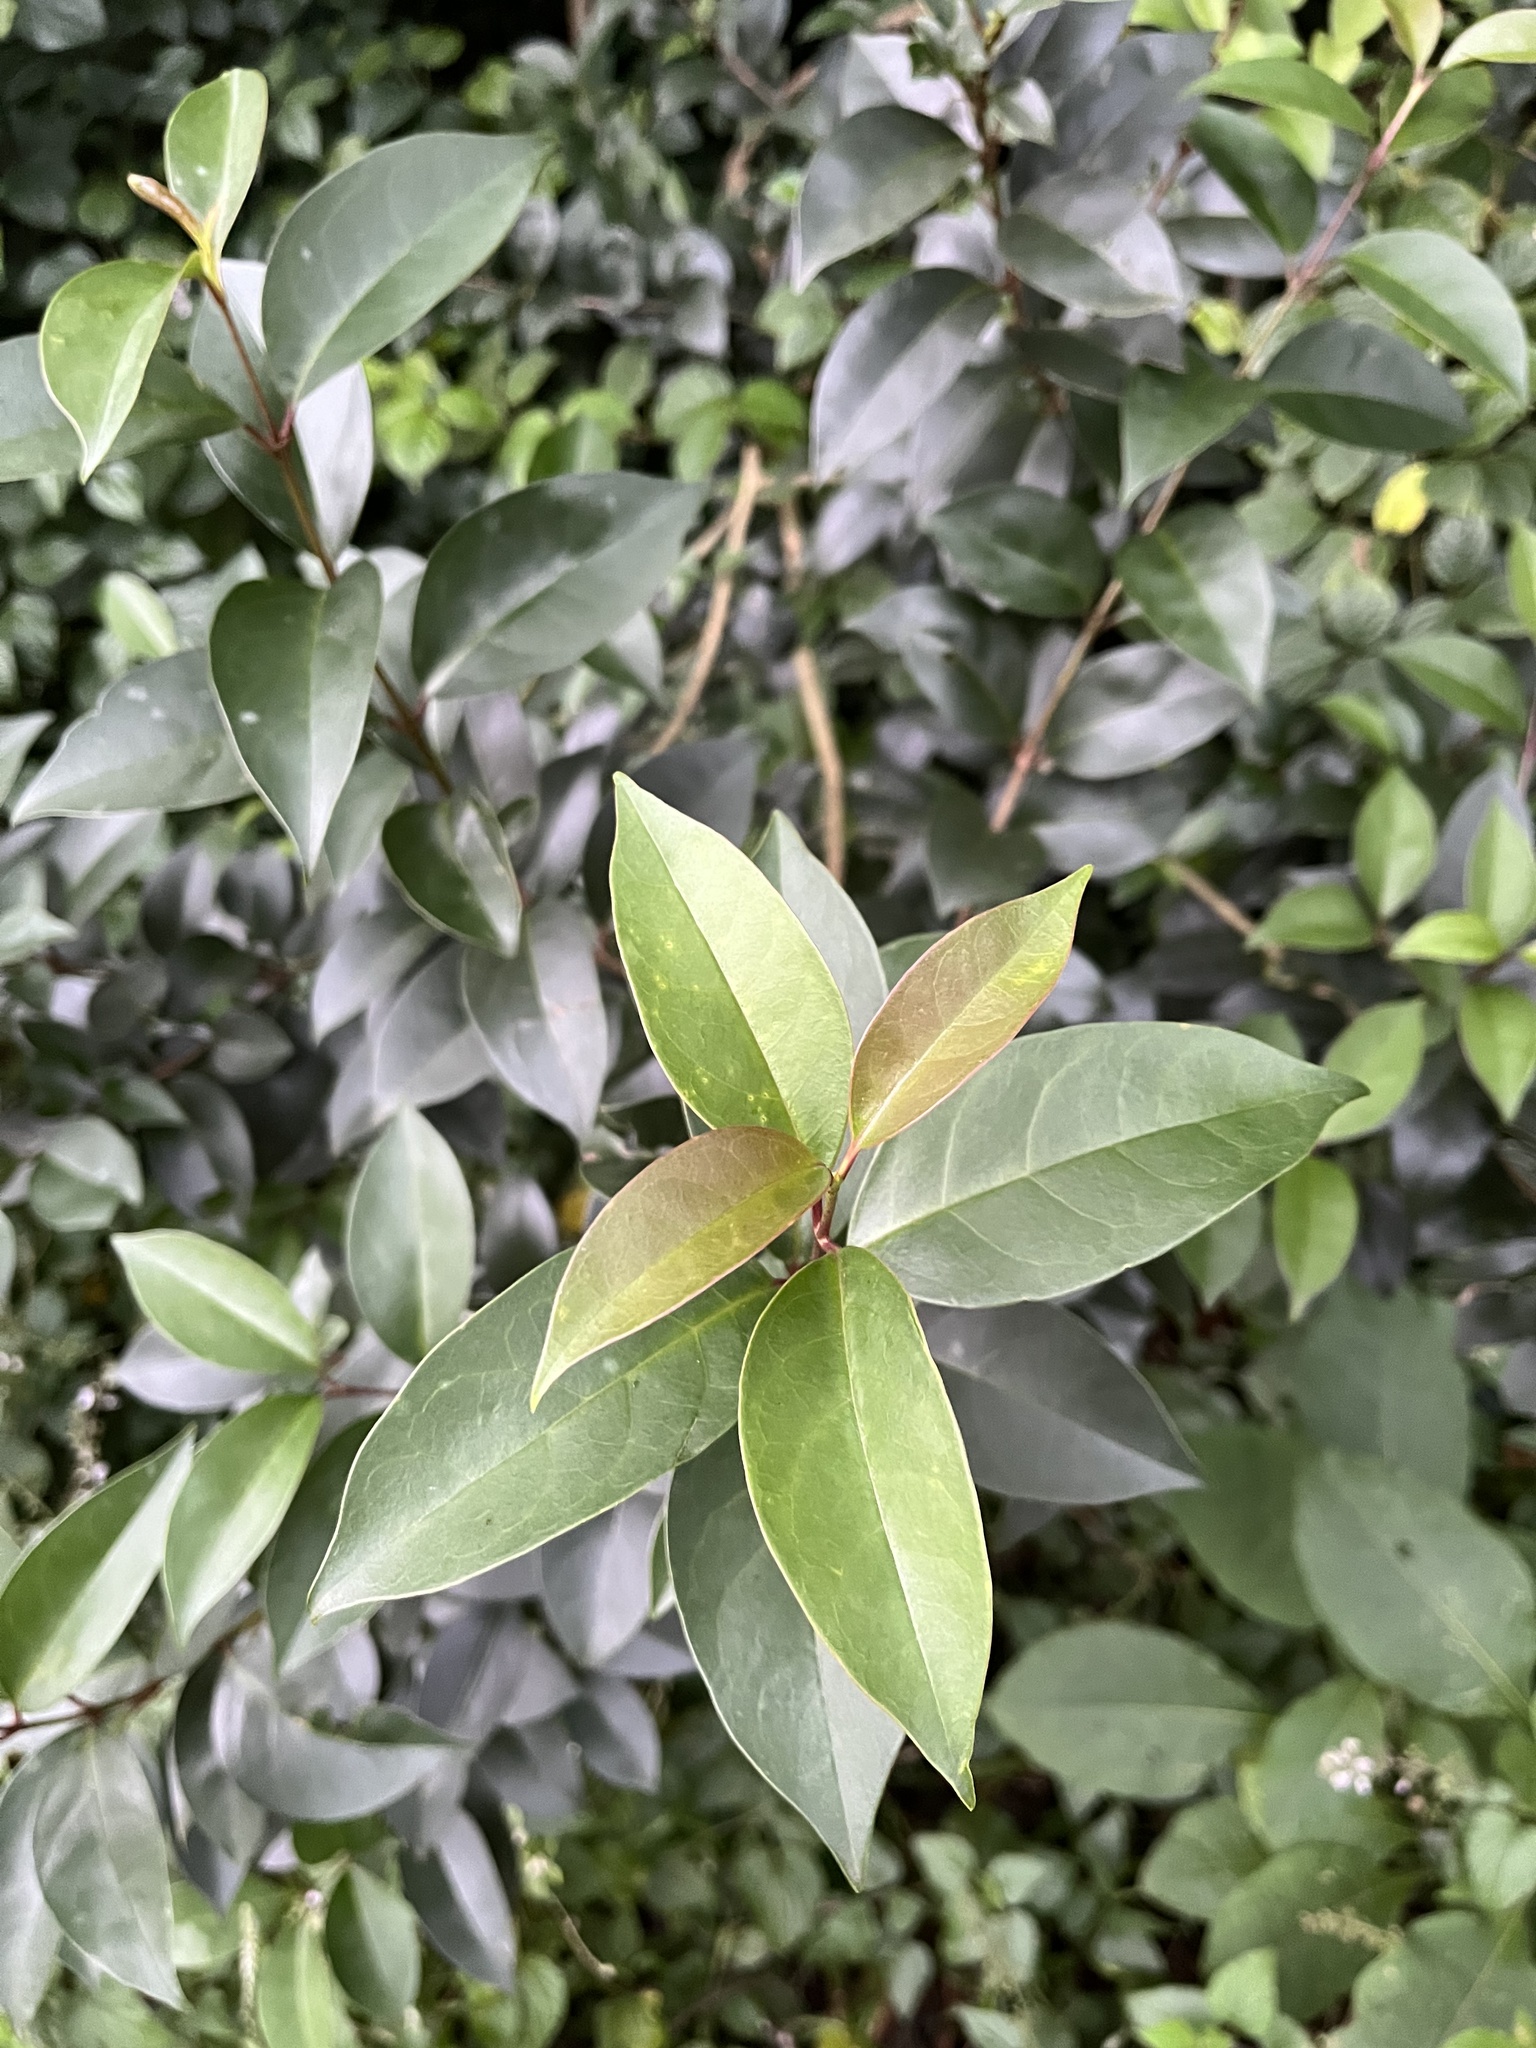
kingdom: Plantae
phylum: Tracheophyta
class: Magnoliopsida
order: Lamiales
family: Oleaceae
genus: Ligustrum
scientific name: Ligustrum lucidum
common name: Glossy privet
